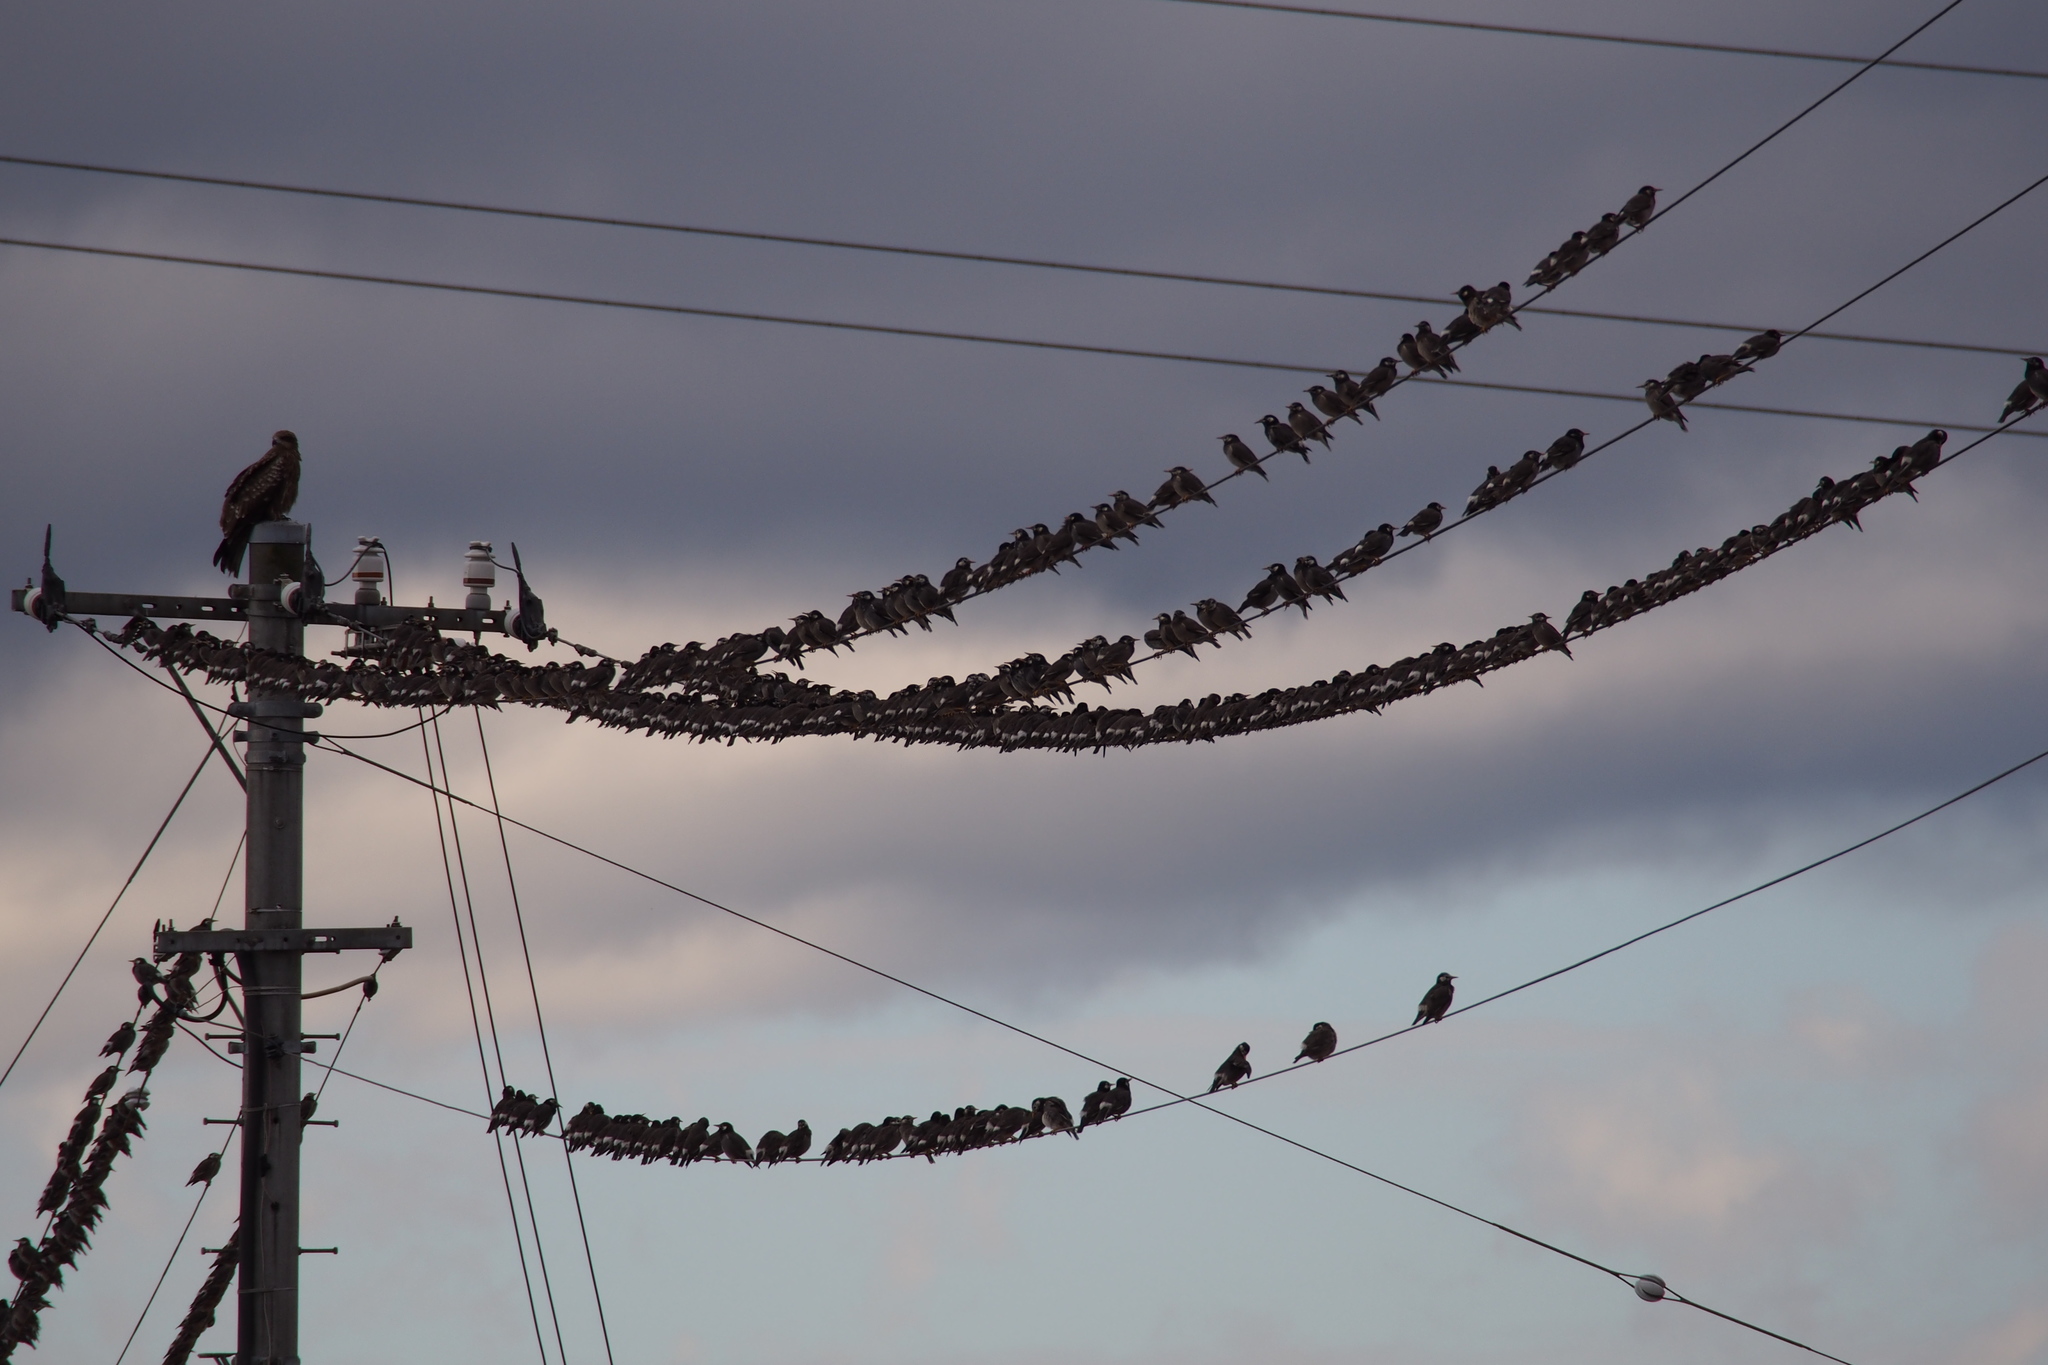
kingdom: Animalia
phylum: Chordata
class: Aves
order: Passeriformes
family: Sturnidae
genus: Spodiopsar
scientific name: Spodiopsar cineraceus
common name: White-cheeked starling
